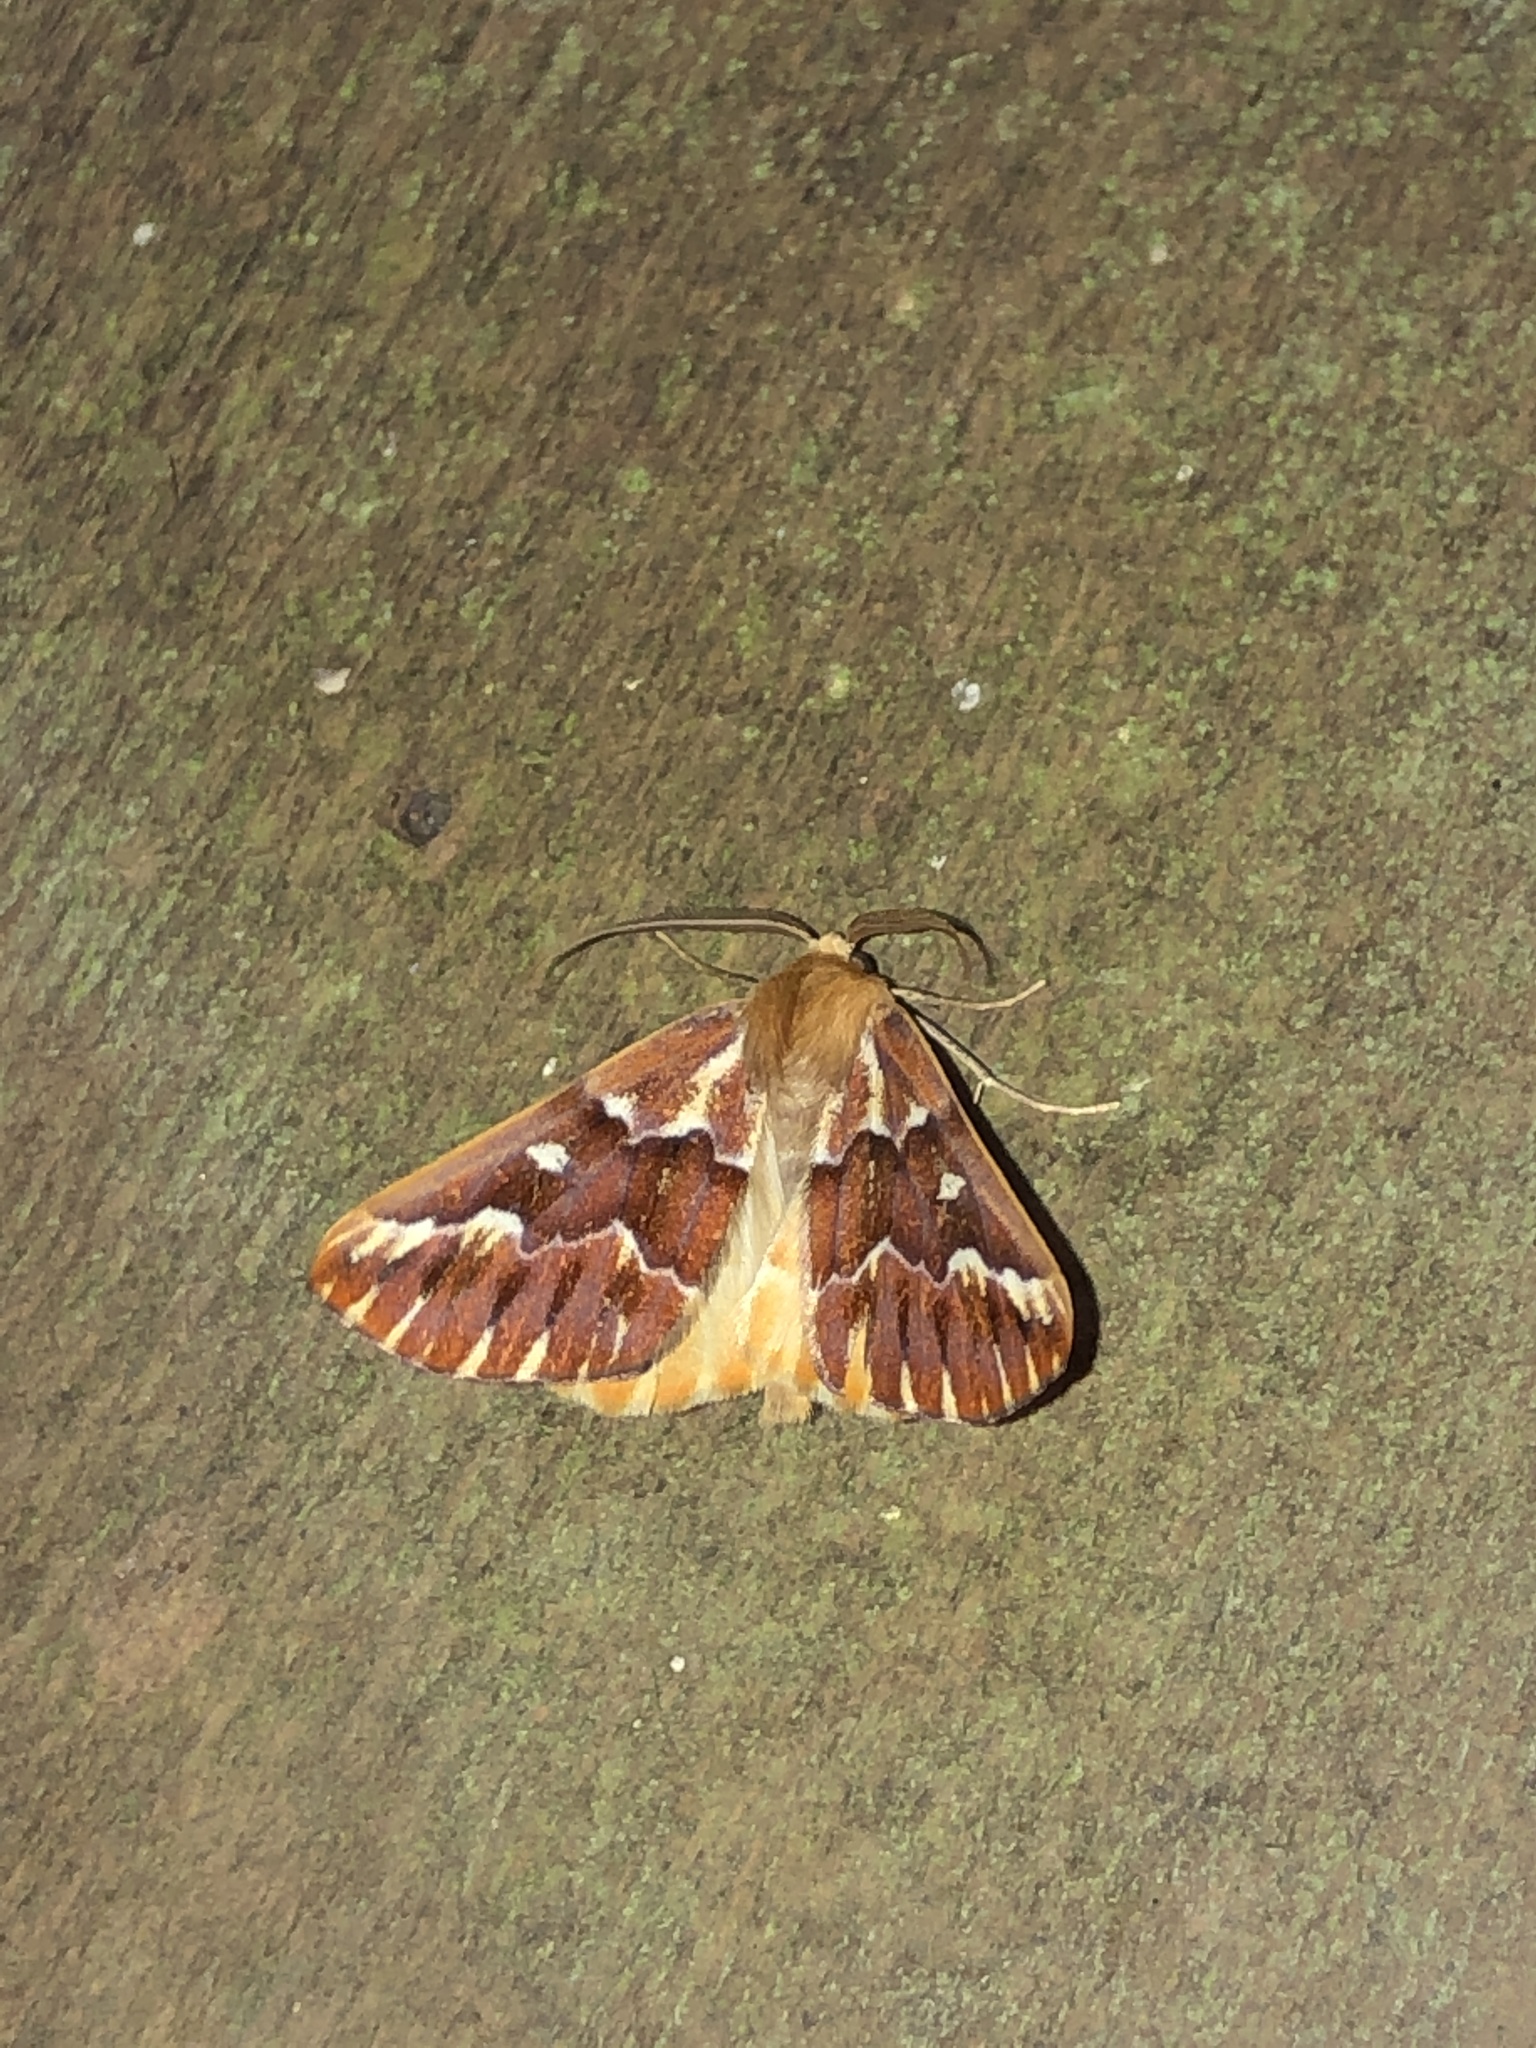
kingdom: Animalia
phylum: Arthropoda
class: Insecta
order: Lepidoptera
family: Geometridae
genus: Caripeta
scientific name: Caripeta aequaliaria
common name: Red girdle moth
